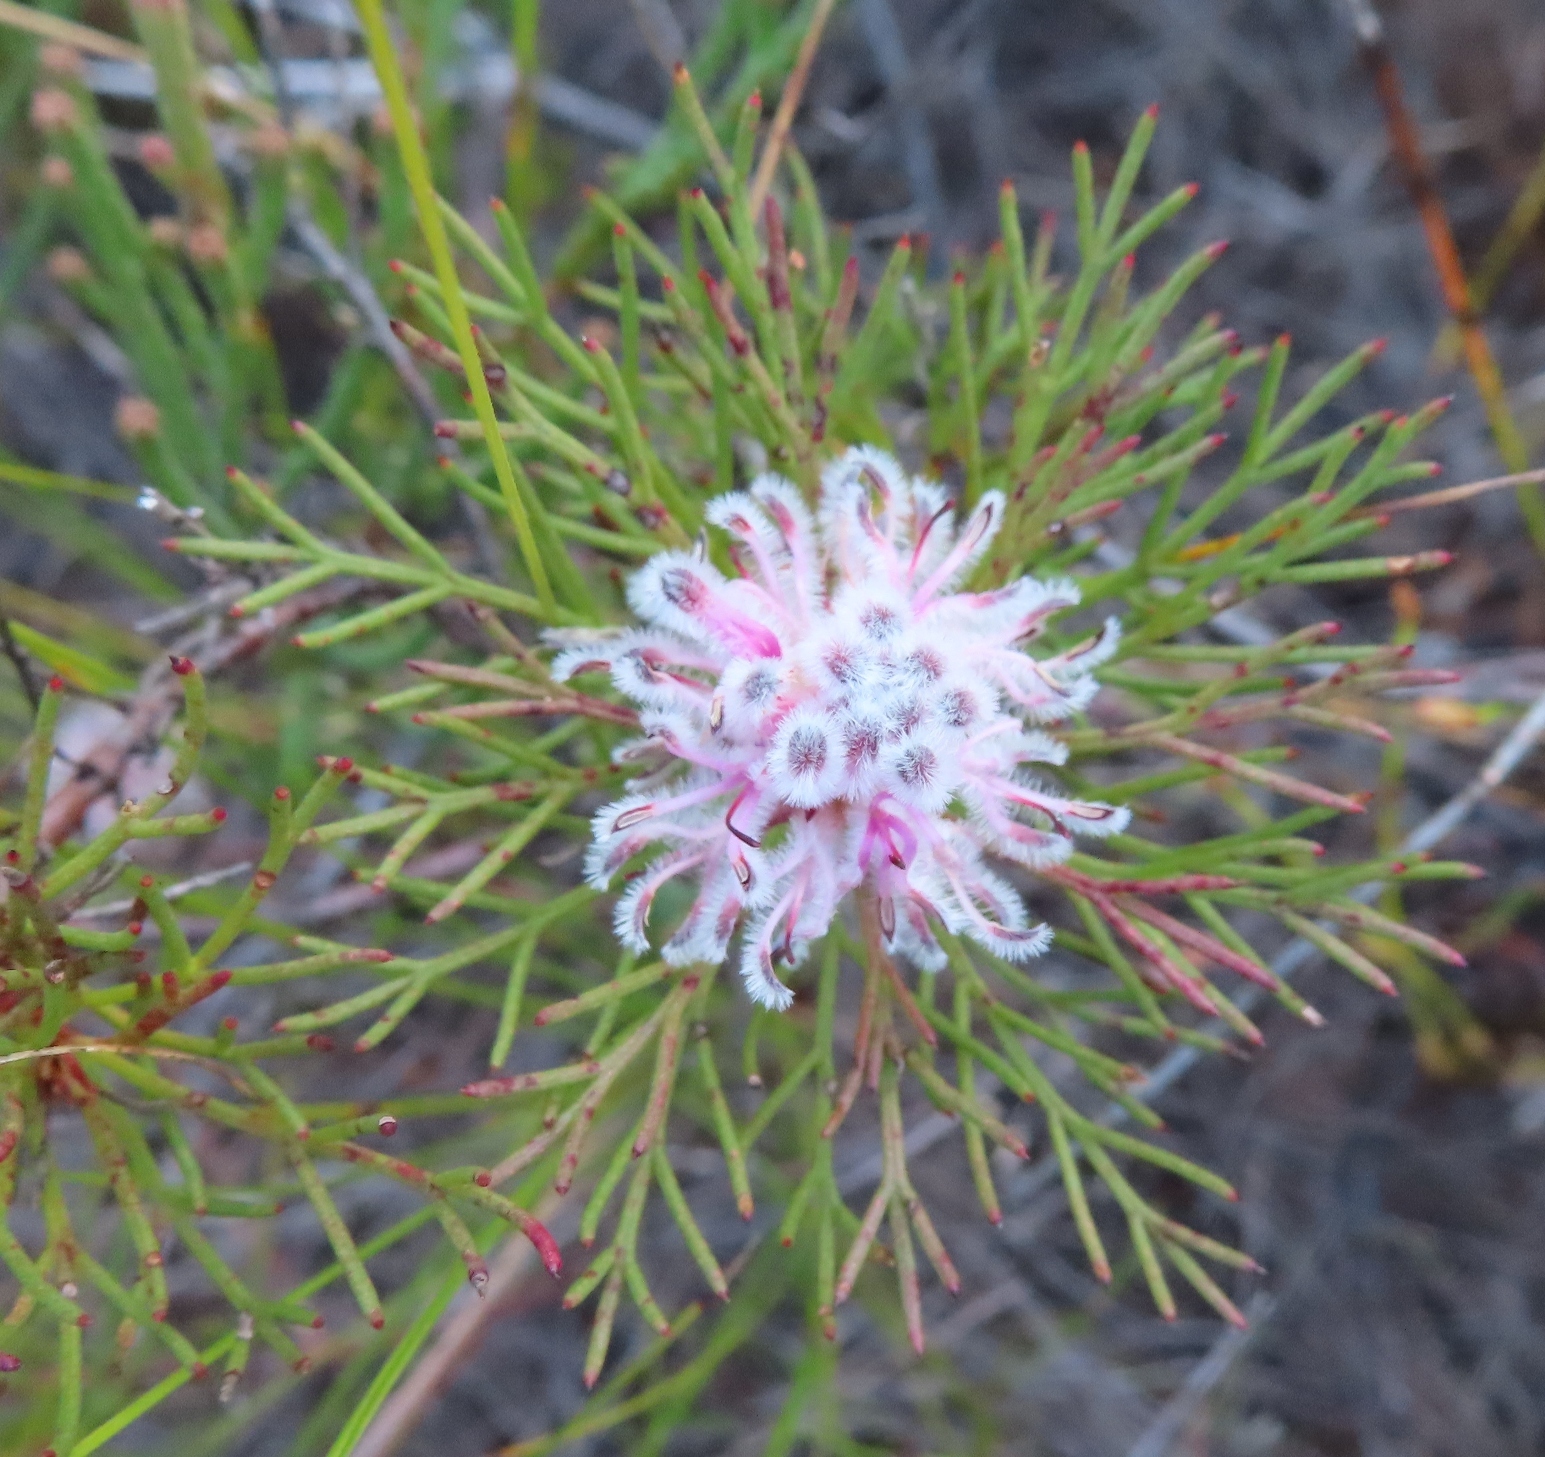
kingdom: Plantae
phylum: Tracheophyta
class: Magnoliopsida
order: Proteales
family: Proteaceae
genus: Serruria
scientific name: Serruria nervosa
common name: Fluted spiderhead
